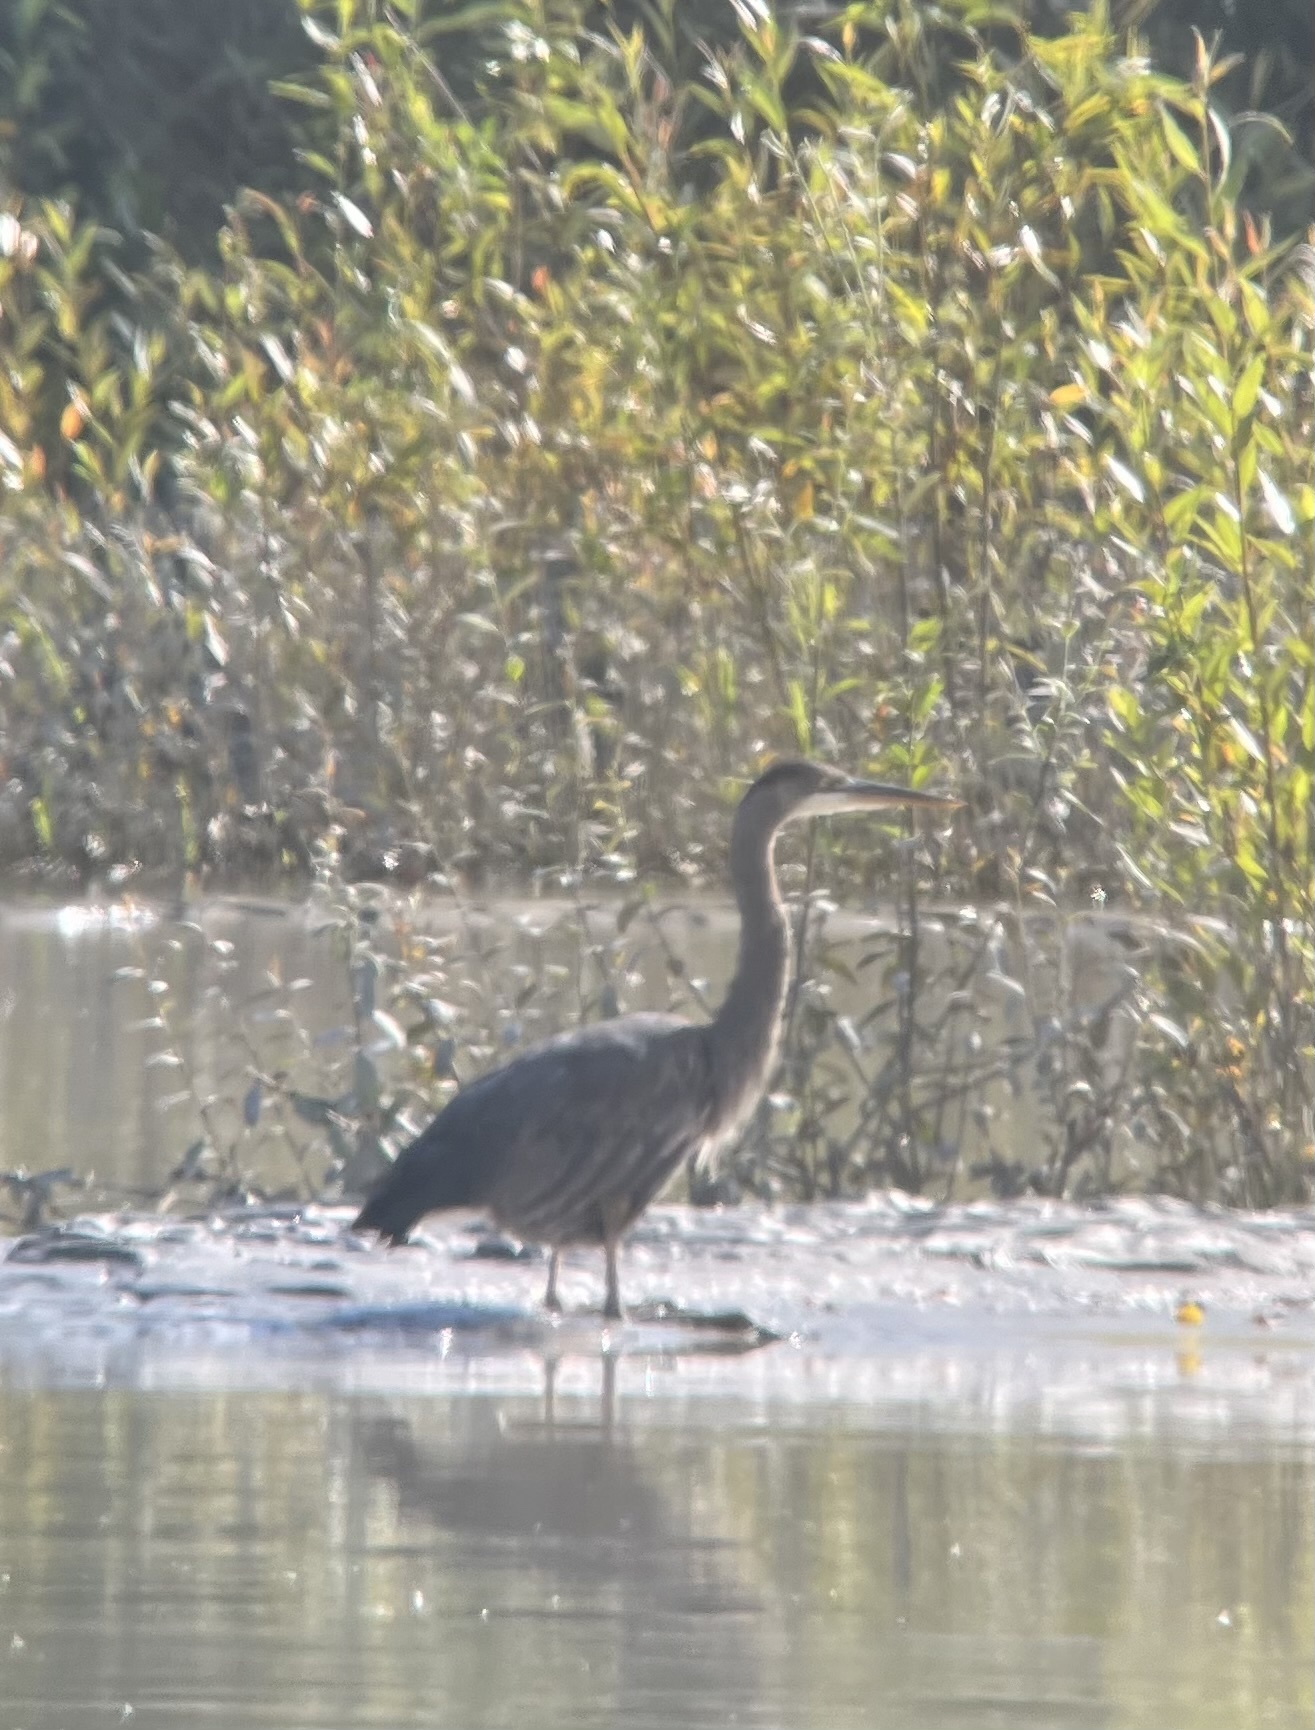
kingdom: Animalia
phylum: Chordata
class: Aves
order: Pelecaniformes
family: Ardeidae
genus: Ardea
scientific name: Ardea herodias
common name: Great blue heron
